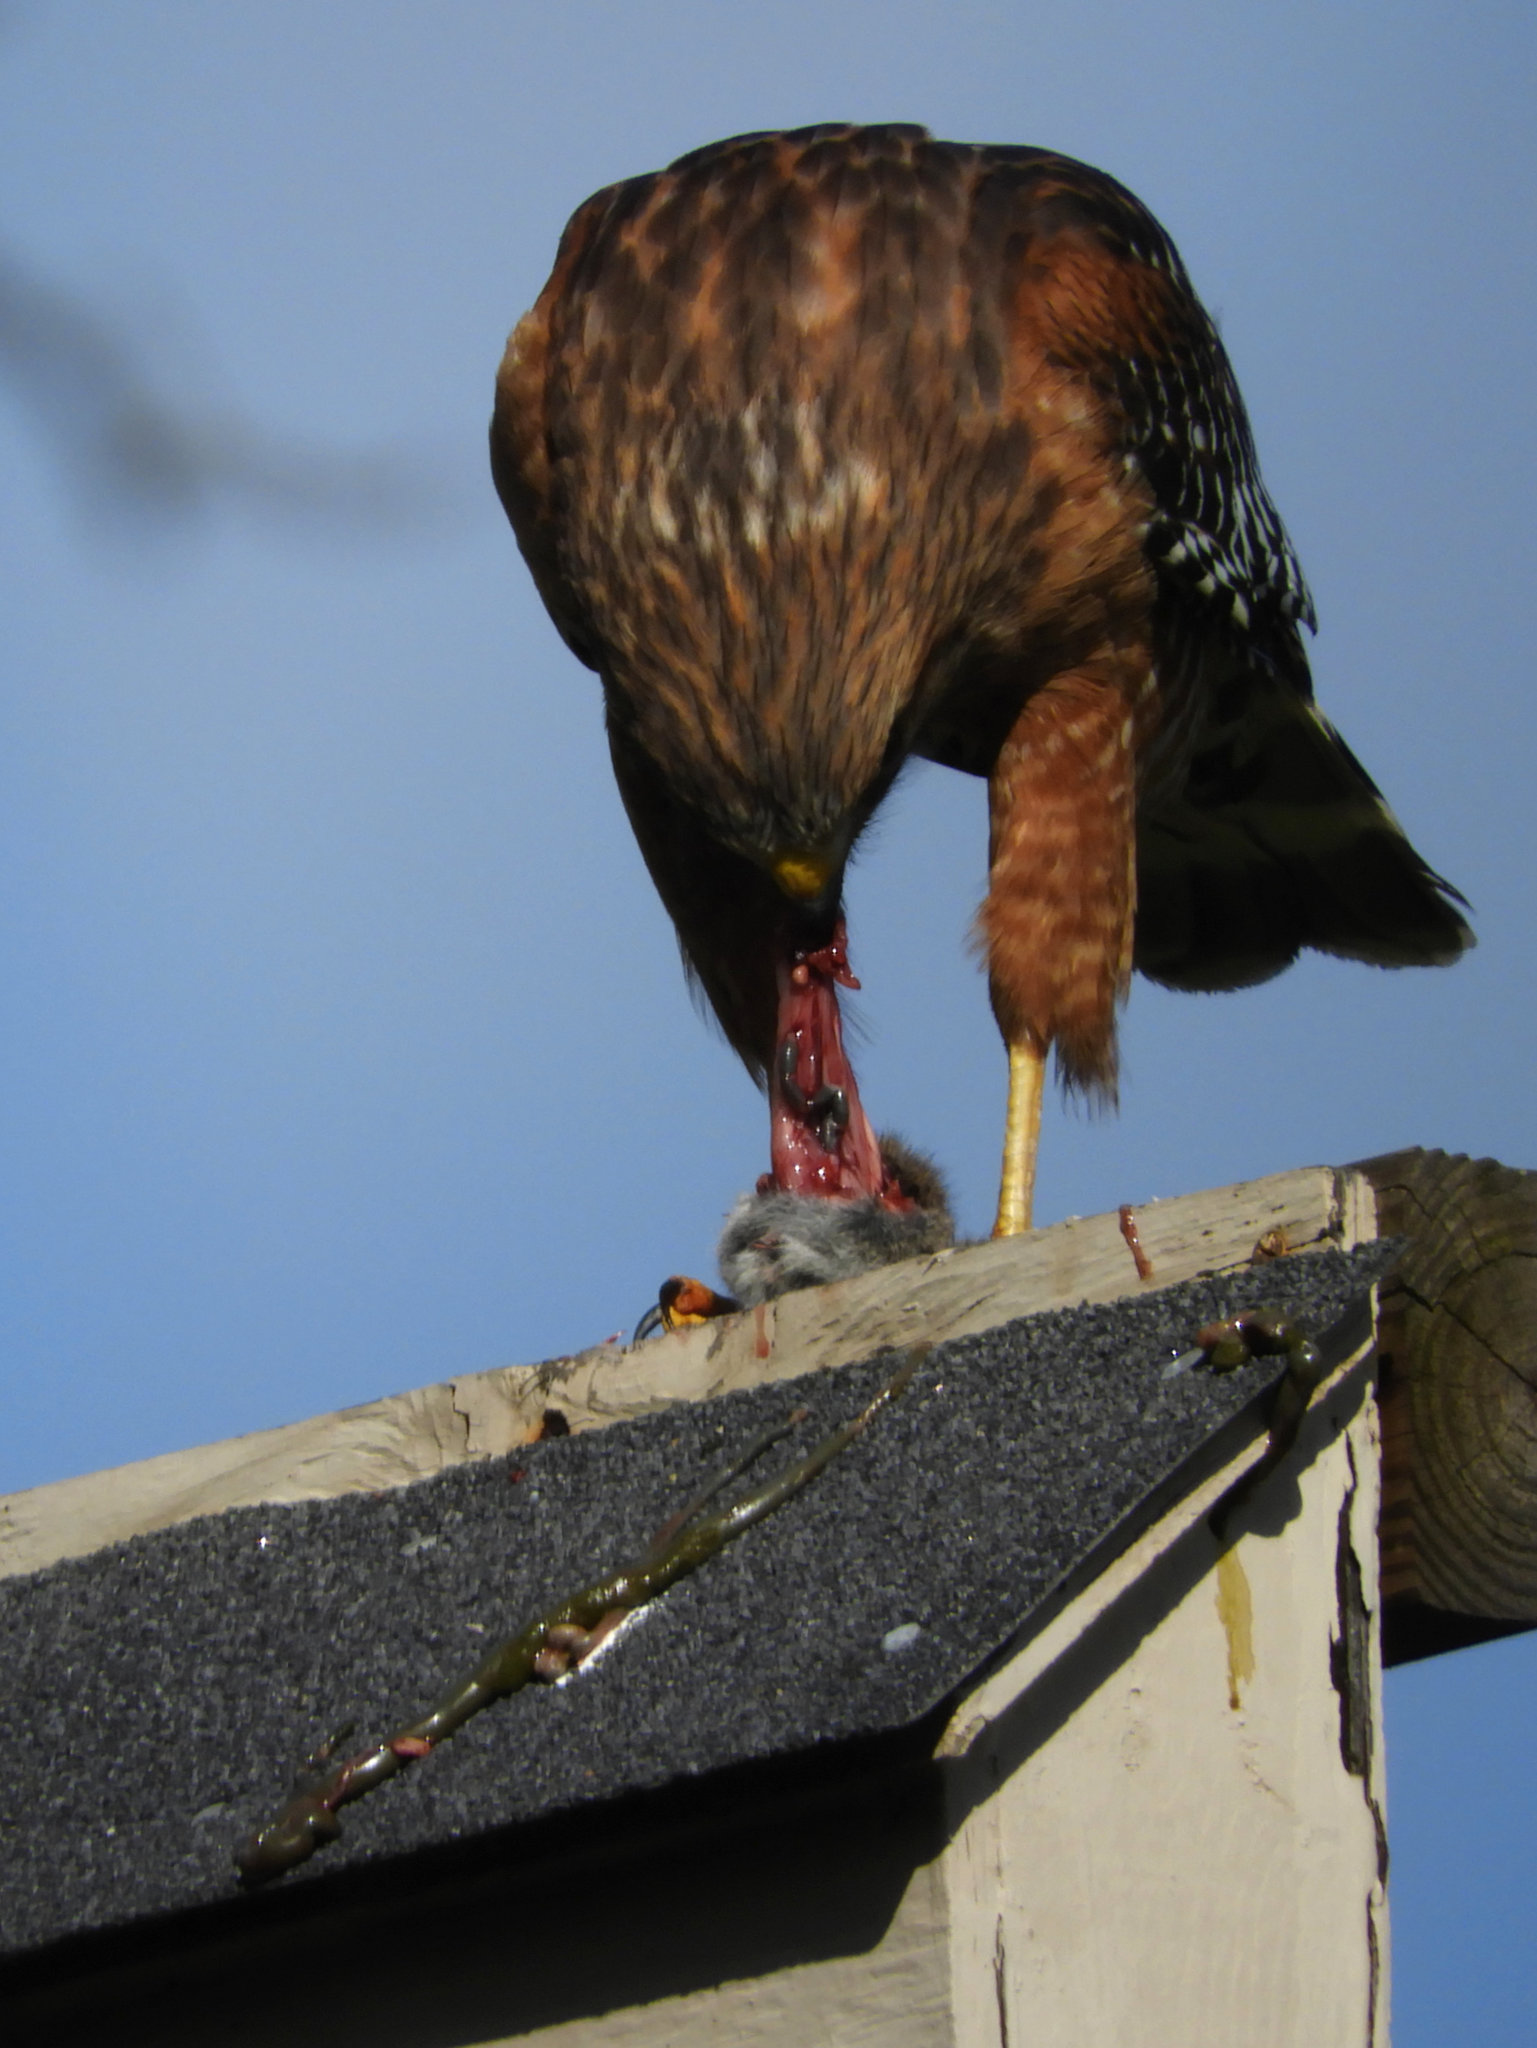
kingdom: Animalia
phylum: Chordata
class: Aves
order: Accipitriformes
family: Accipitridae
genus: Buteo
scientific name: Buteo lineatus
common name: Red-shouldered hawk
